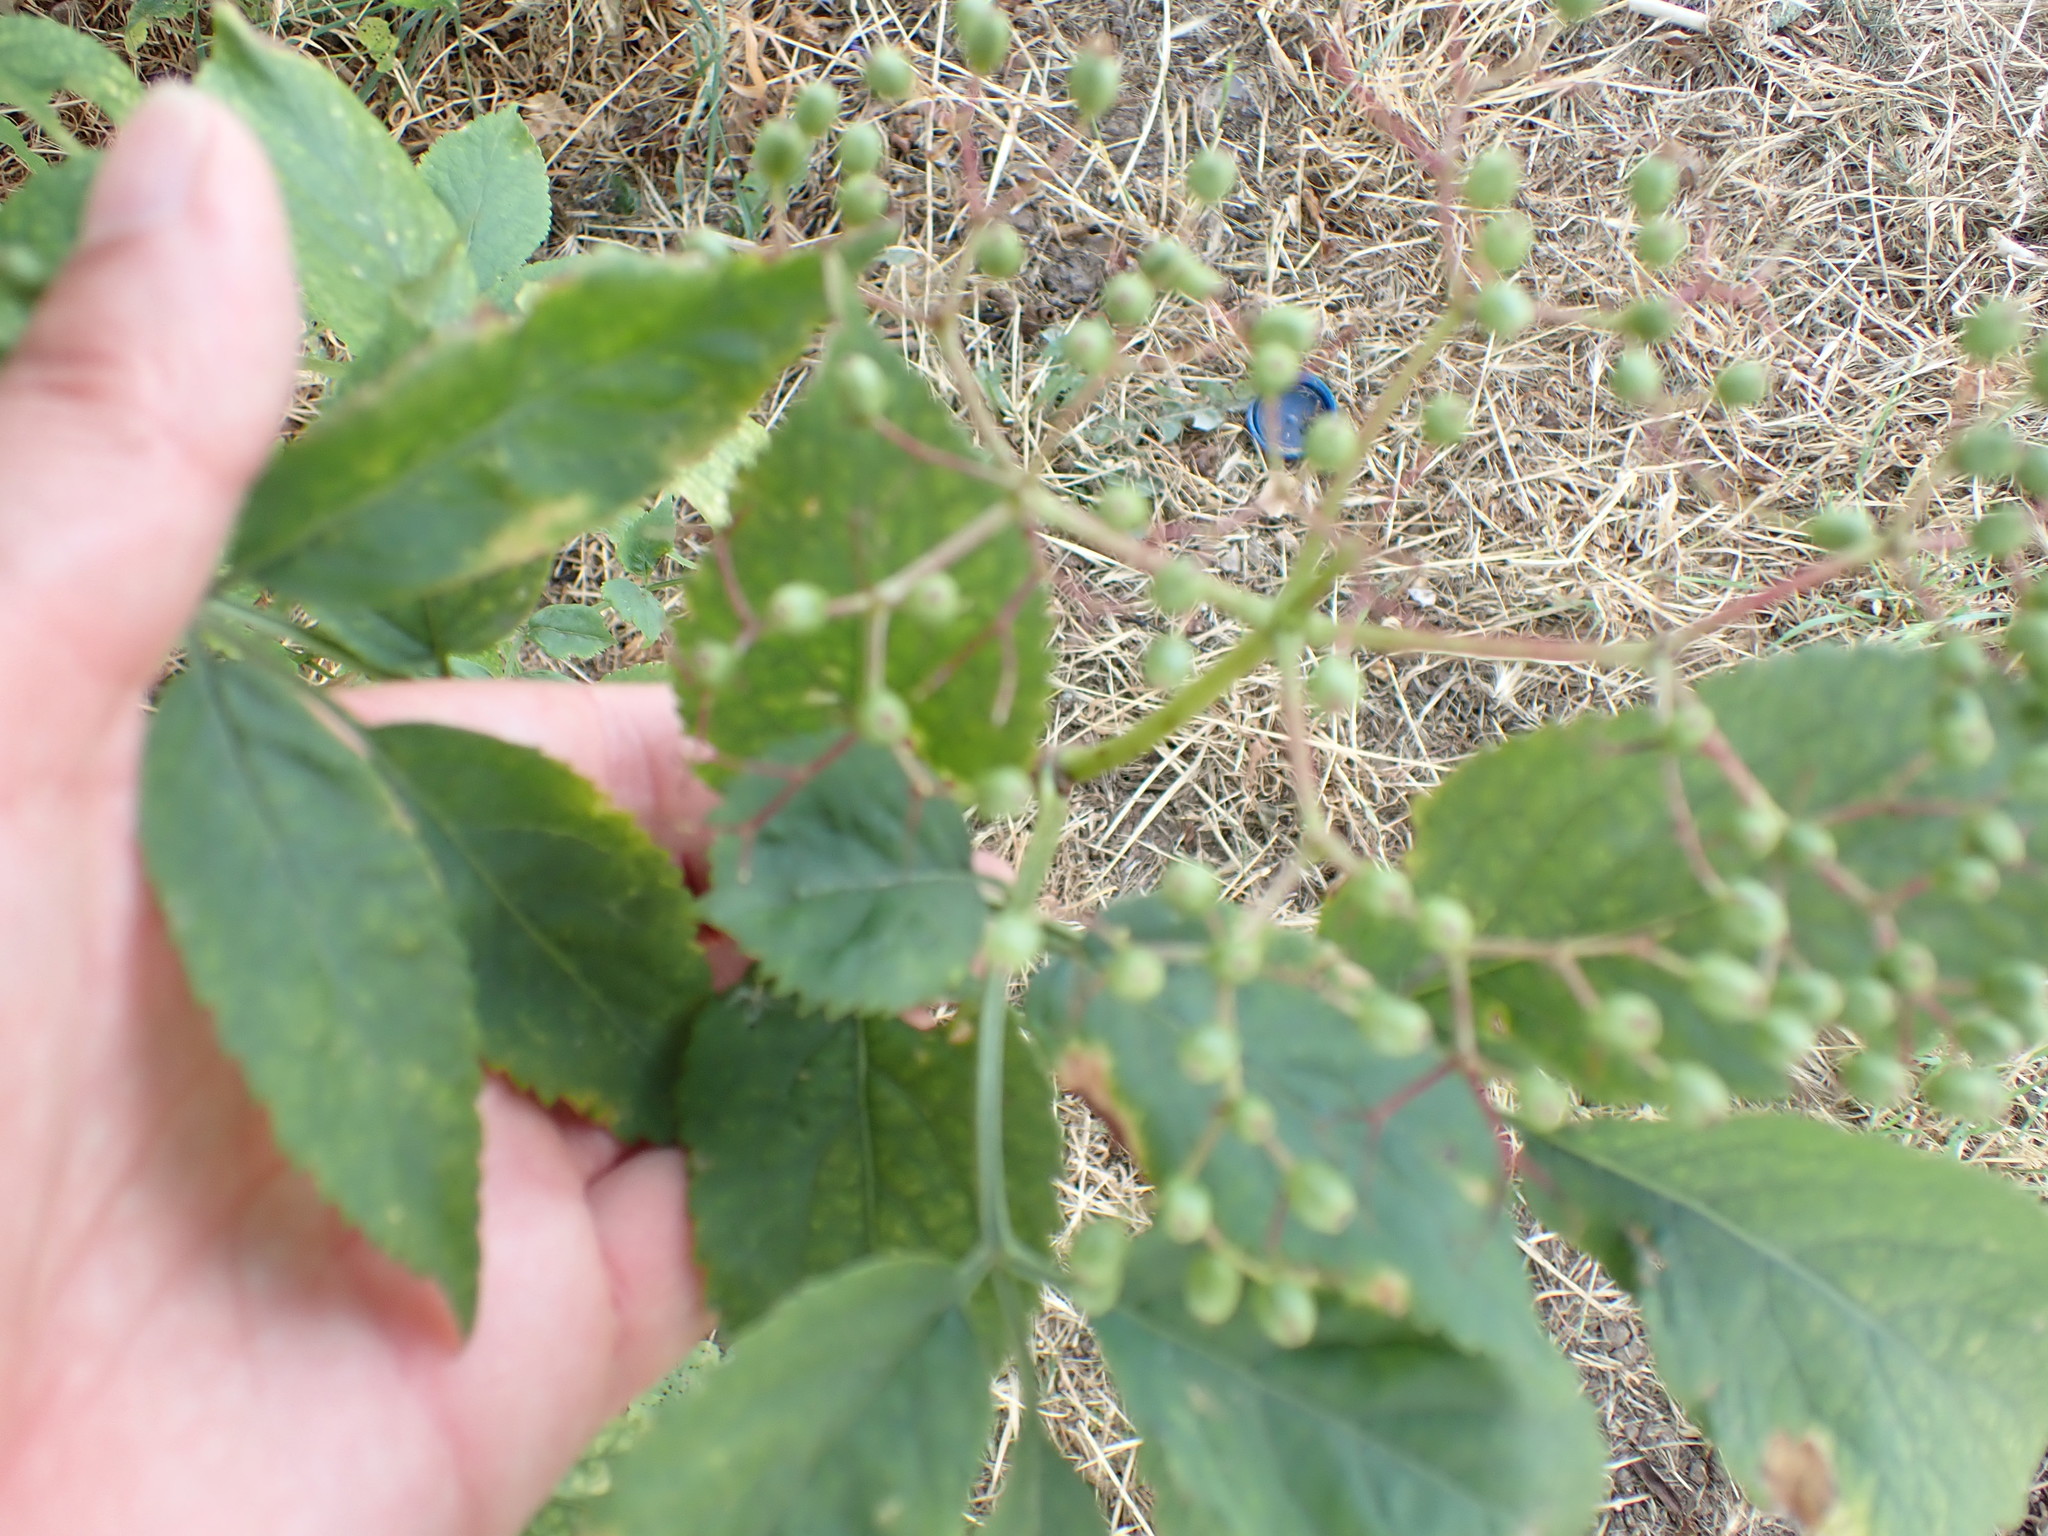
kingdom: Plantae
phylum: Tracheophyta
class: Magnoliopsida
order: Dipsacales
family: Viburnaceae
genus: Sambucus
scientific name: Sambucus nigra
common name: Elder
